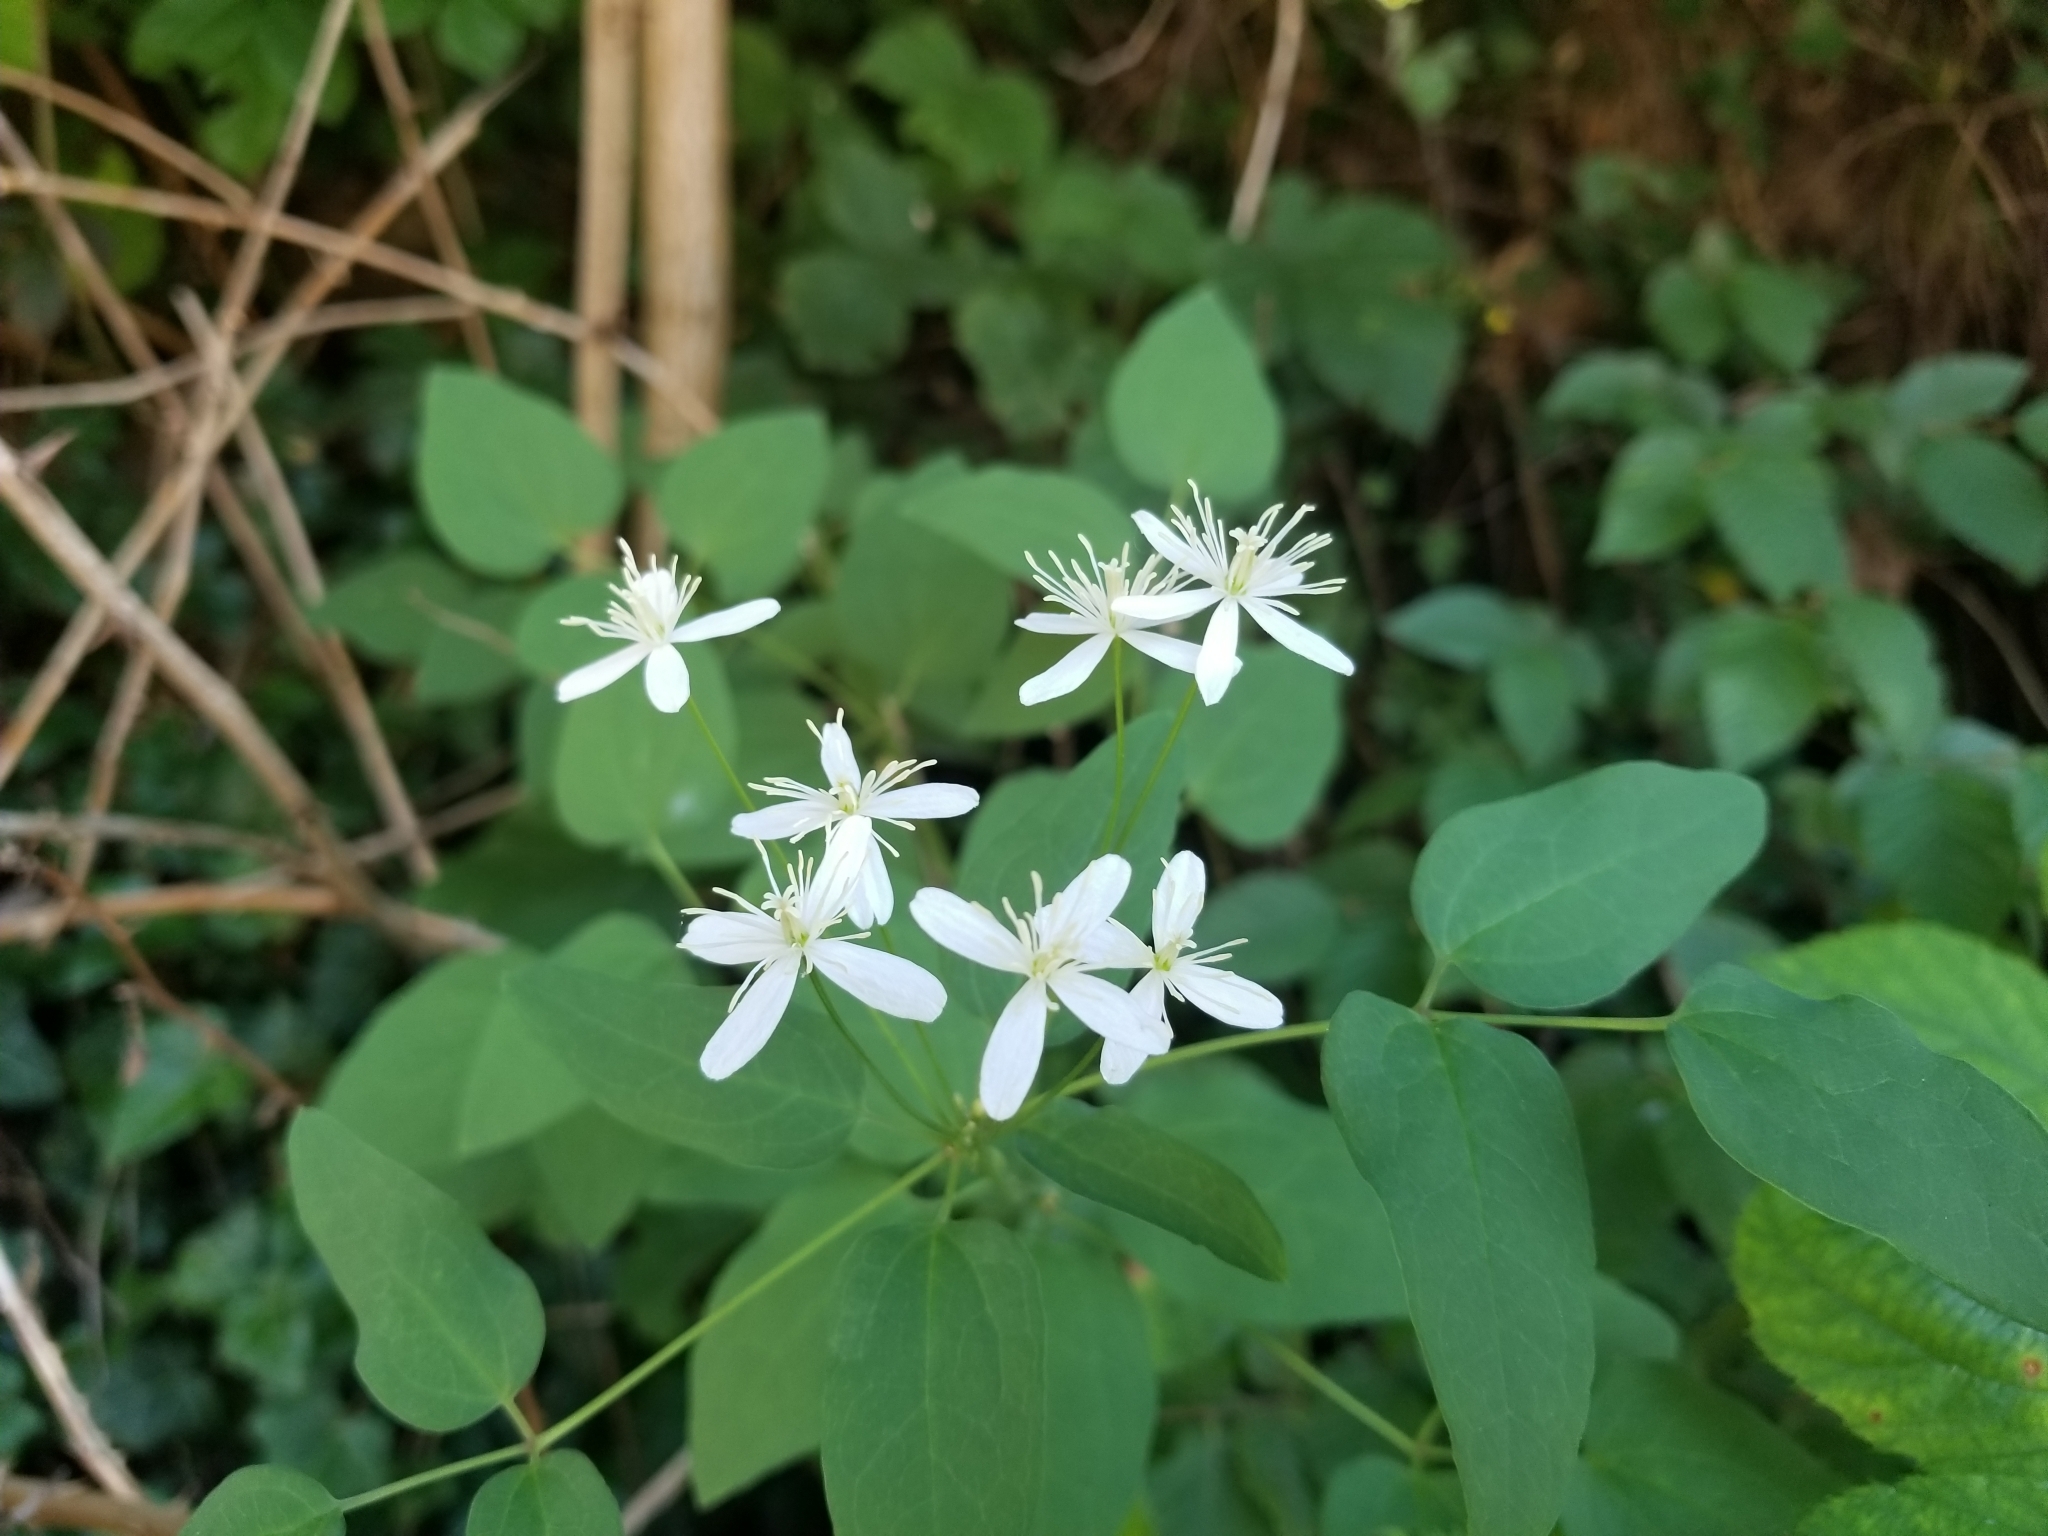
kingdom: Plantae
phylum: Tracheophyta
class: Magnoliopsida
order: Ranunculales
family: Ranunculaceae
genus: Clematis
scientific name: Clematis recta
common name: Ground clematis
